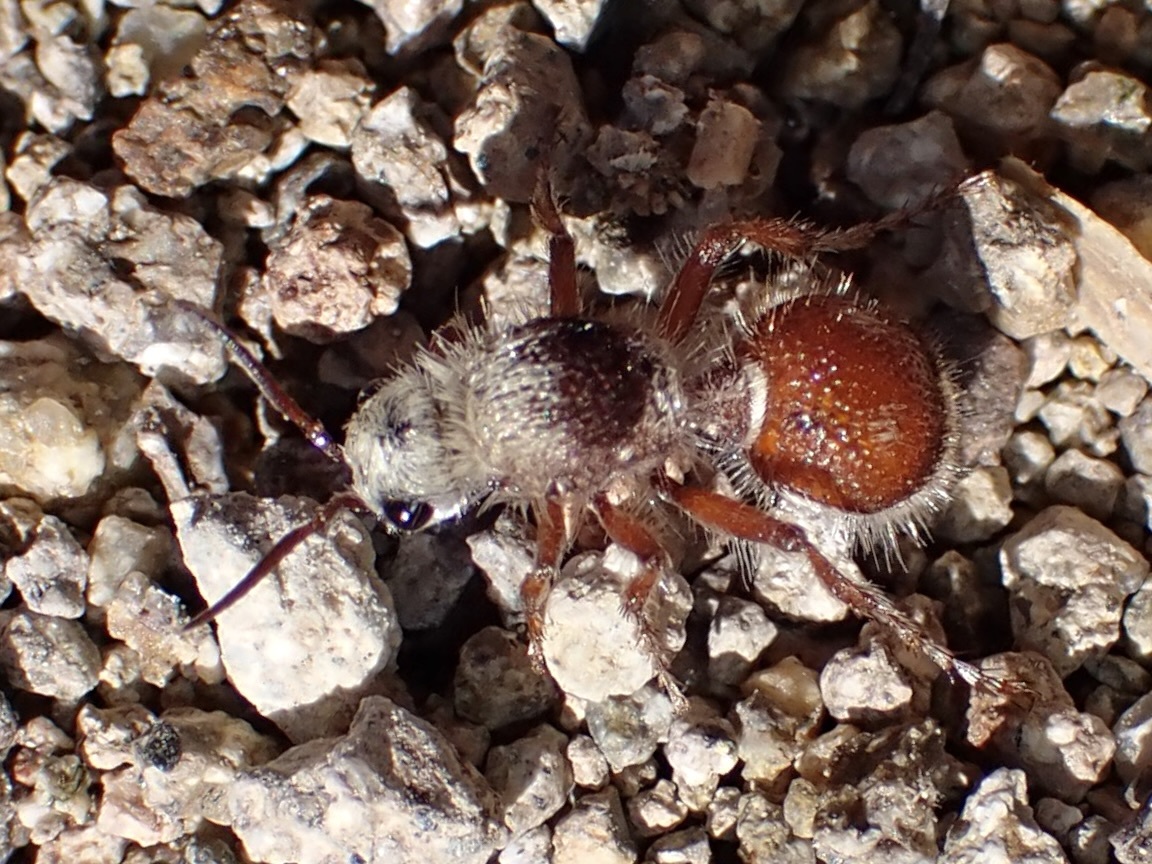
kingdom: Animalia
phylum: Arthropoda
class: Insecta
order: Hymenoptera
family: Mutillidae
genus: Dasymutilla
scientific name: Dasymutilla
